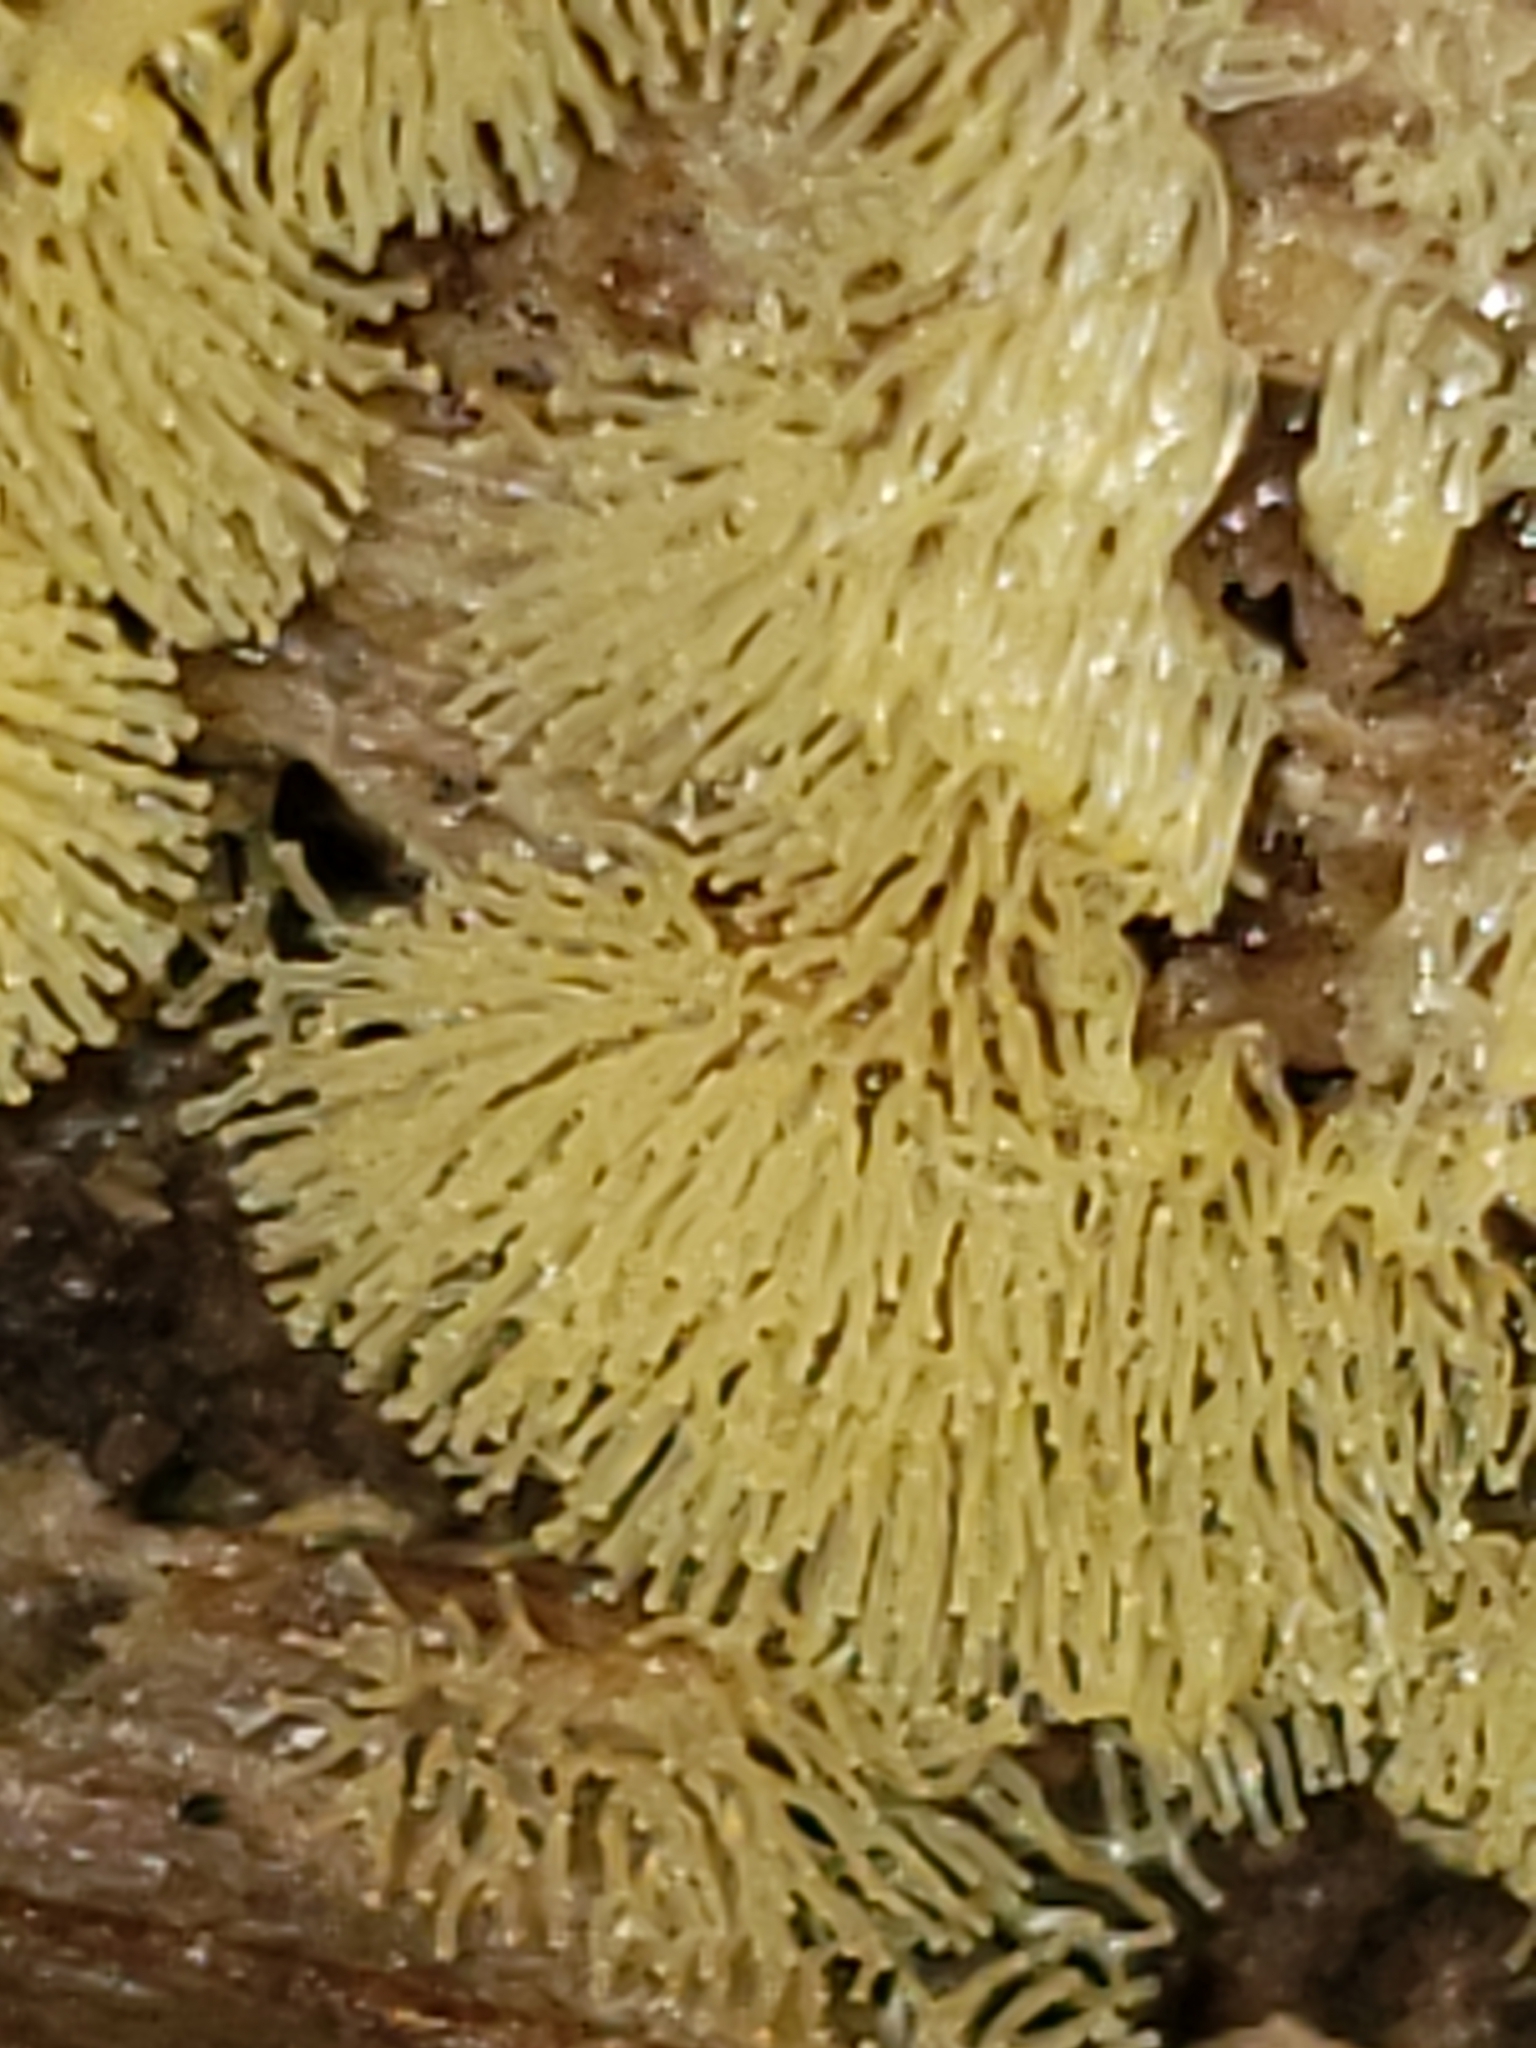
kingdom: Protozoa
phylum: Mycetozoa
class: Protosteliomycetes
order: Ceratiomyxales
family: Ceratiomyxaceae
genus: Ceratiomyxa
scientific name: Ceratiomyxa fruticulosa
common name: Honeycomb coral slime mold
